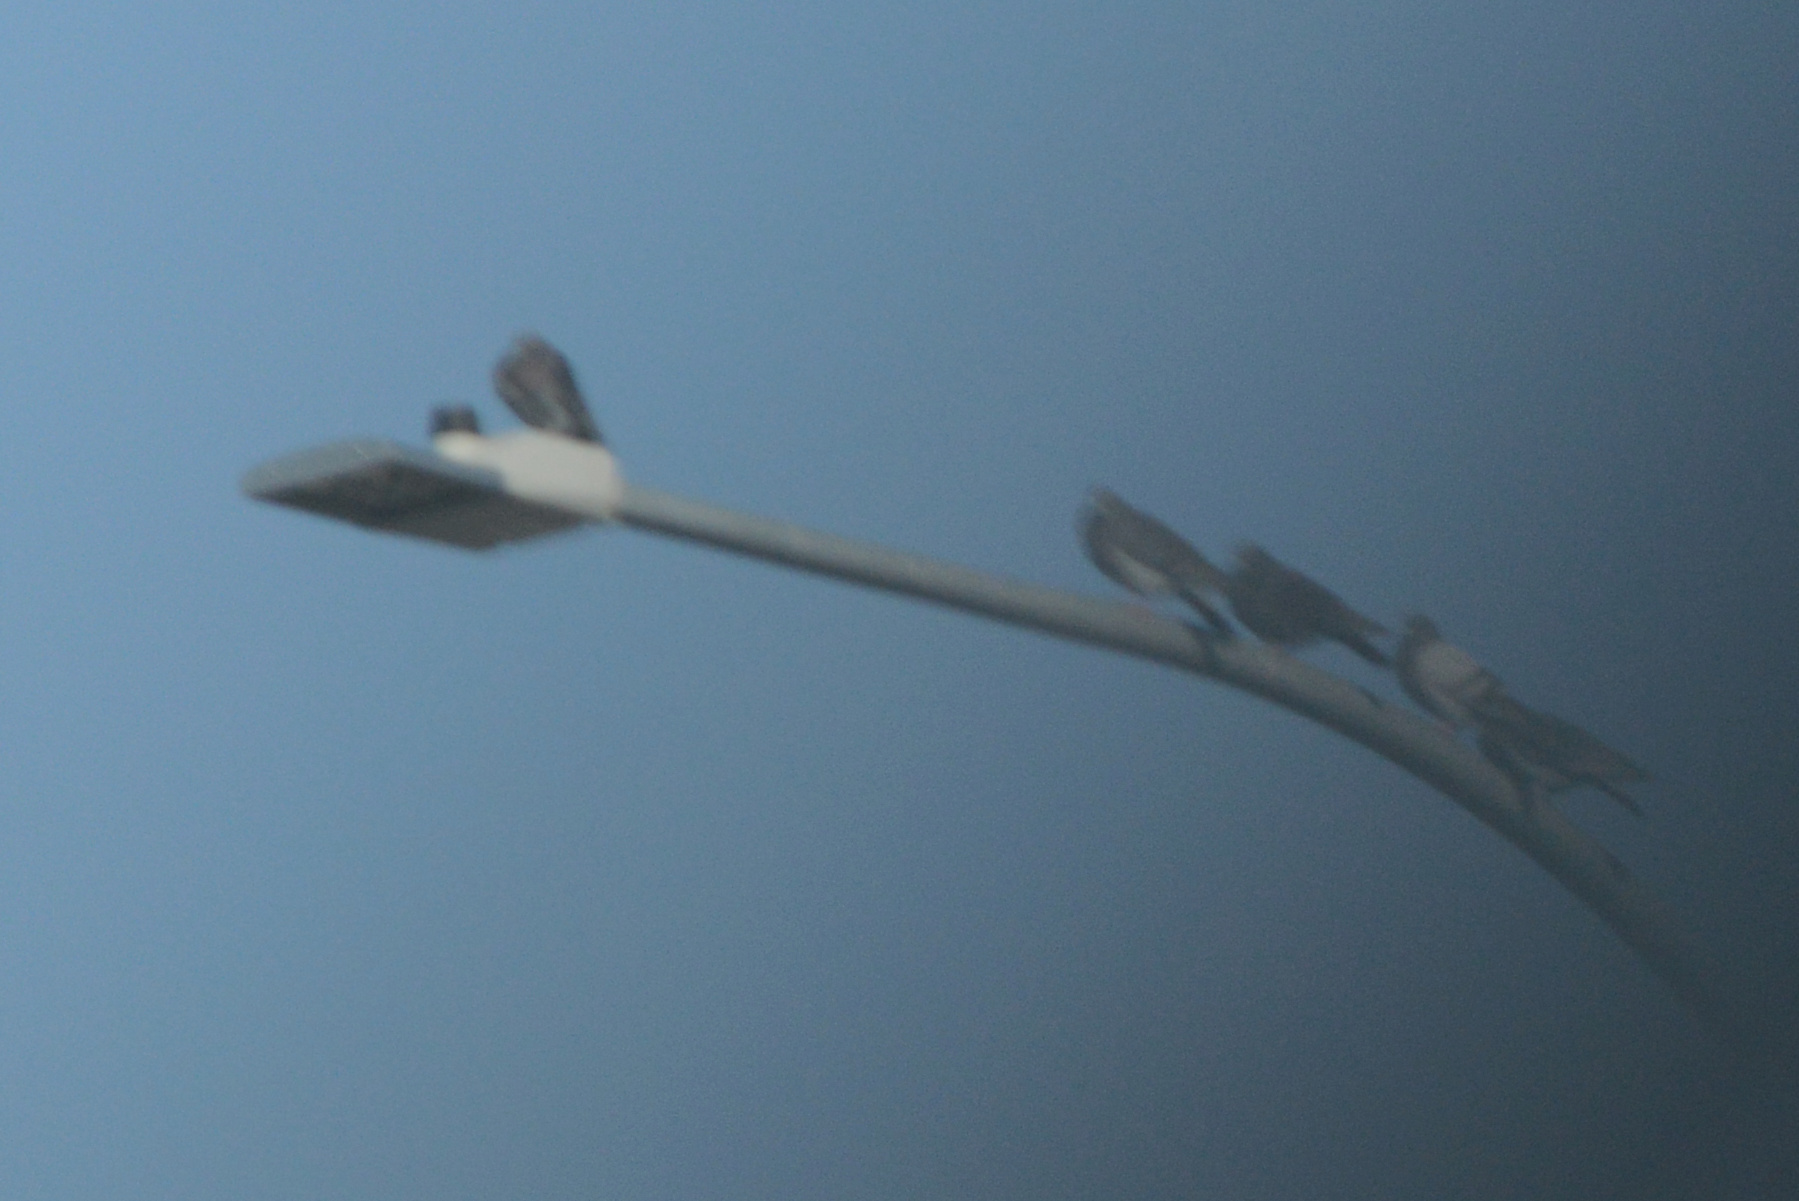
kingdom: Animalia
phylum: Chordata
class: Aves
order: Columbiformes
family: Columbidae
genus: Columba
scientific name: Columba livia
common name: Rock pigeon
